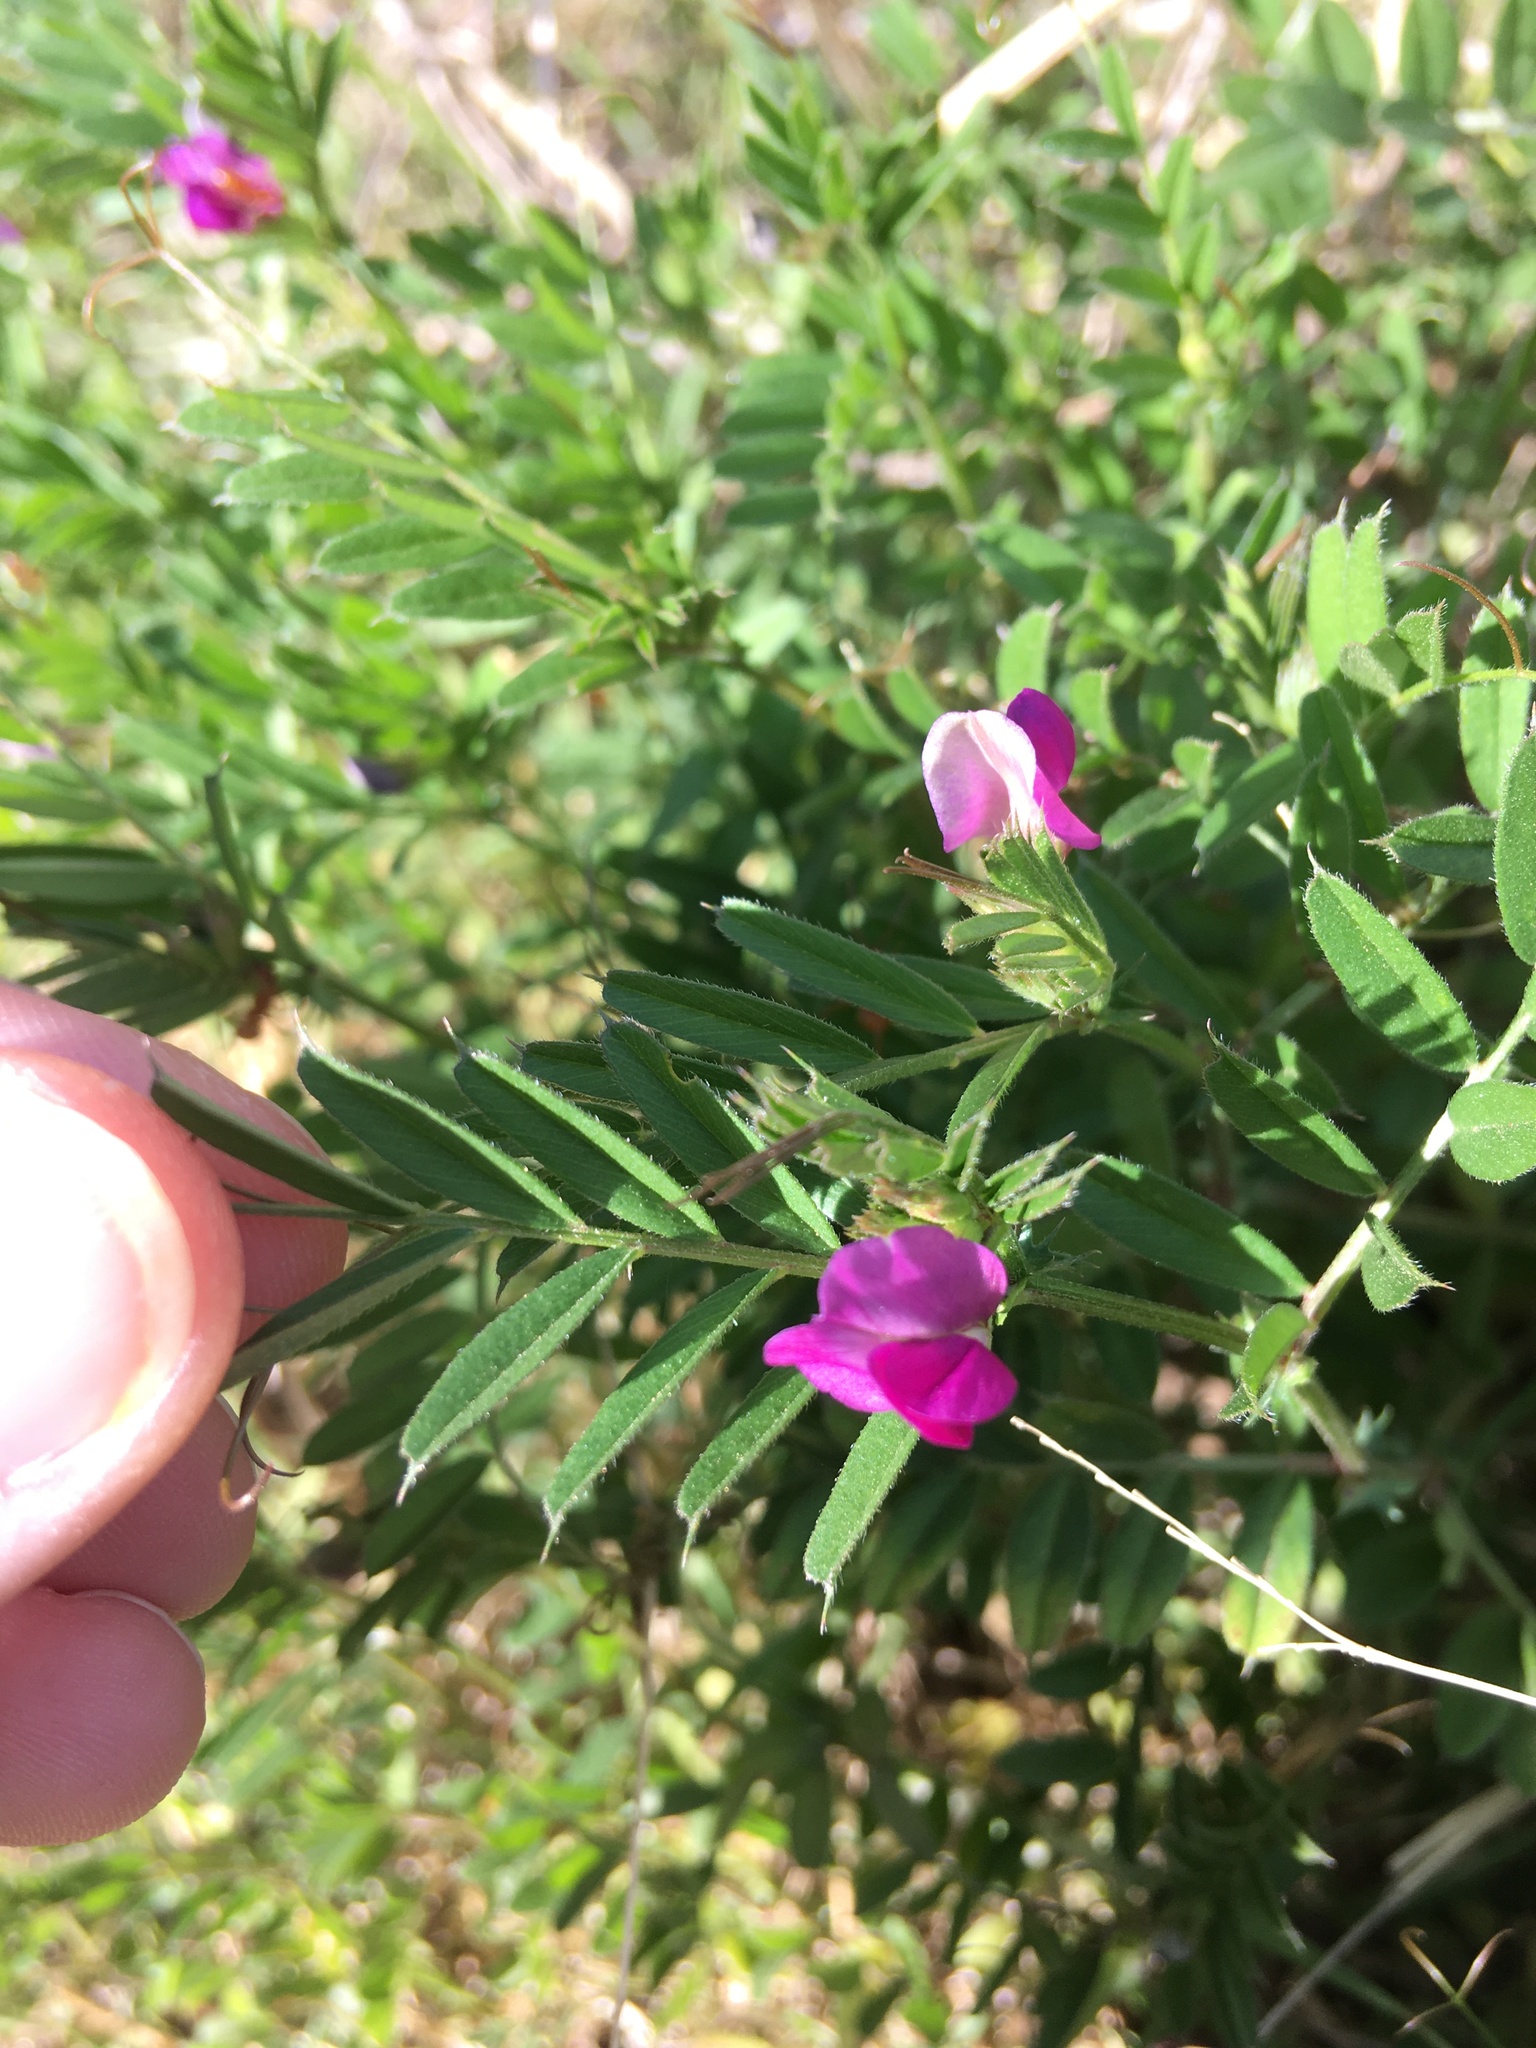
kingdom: Plantae
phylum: Tracheophyta
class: Magnoliopsida
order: Fabales
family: Fabaceae
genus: Vicia
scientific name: Vicia sativa
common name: Garden vetch
